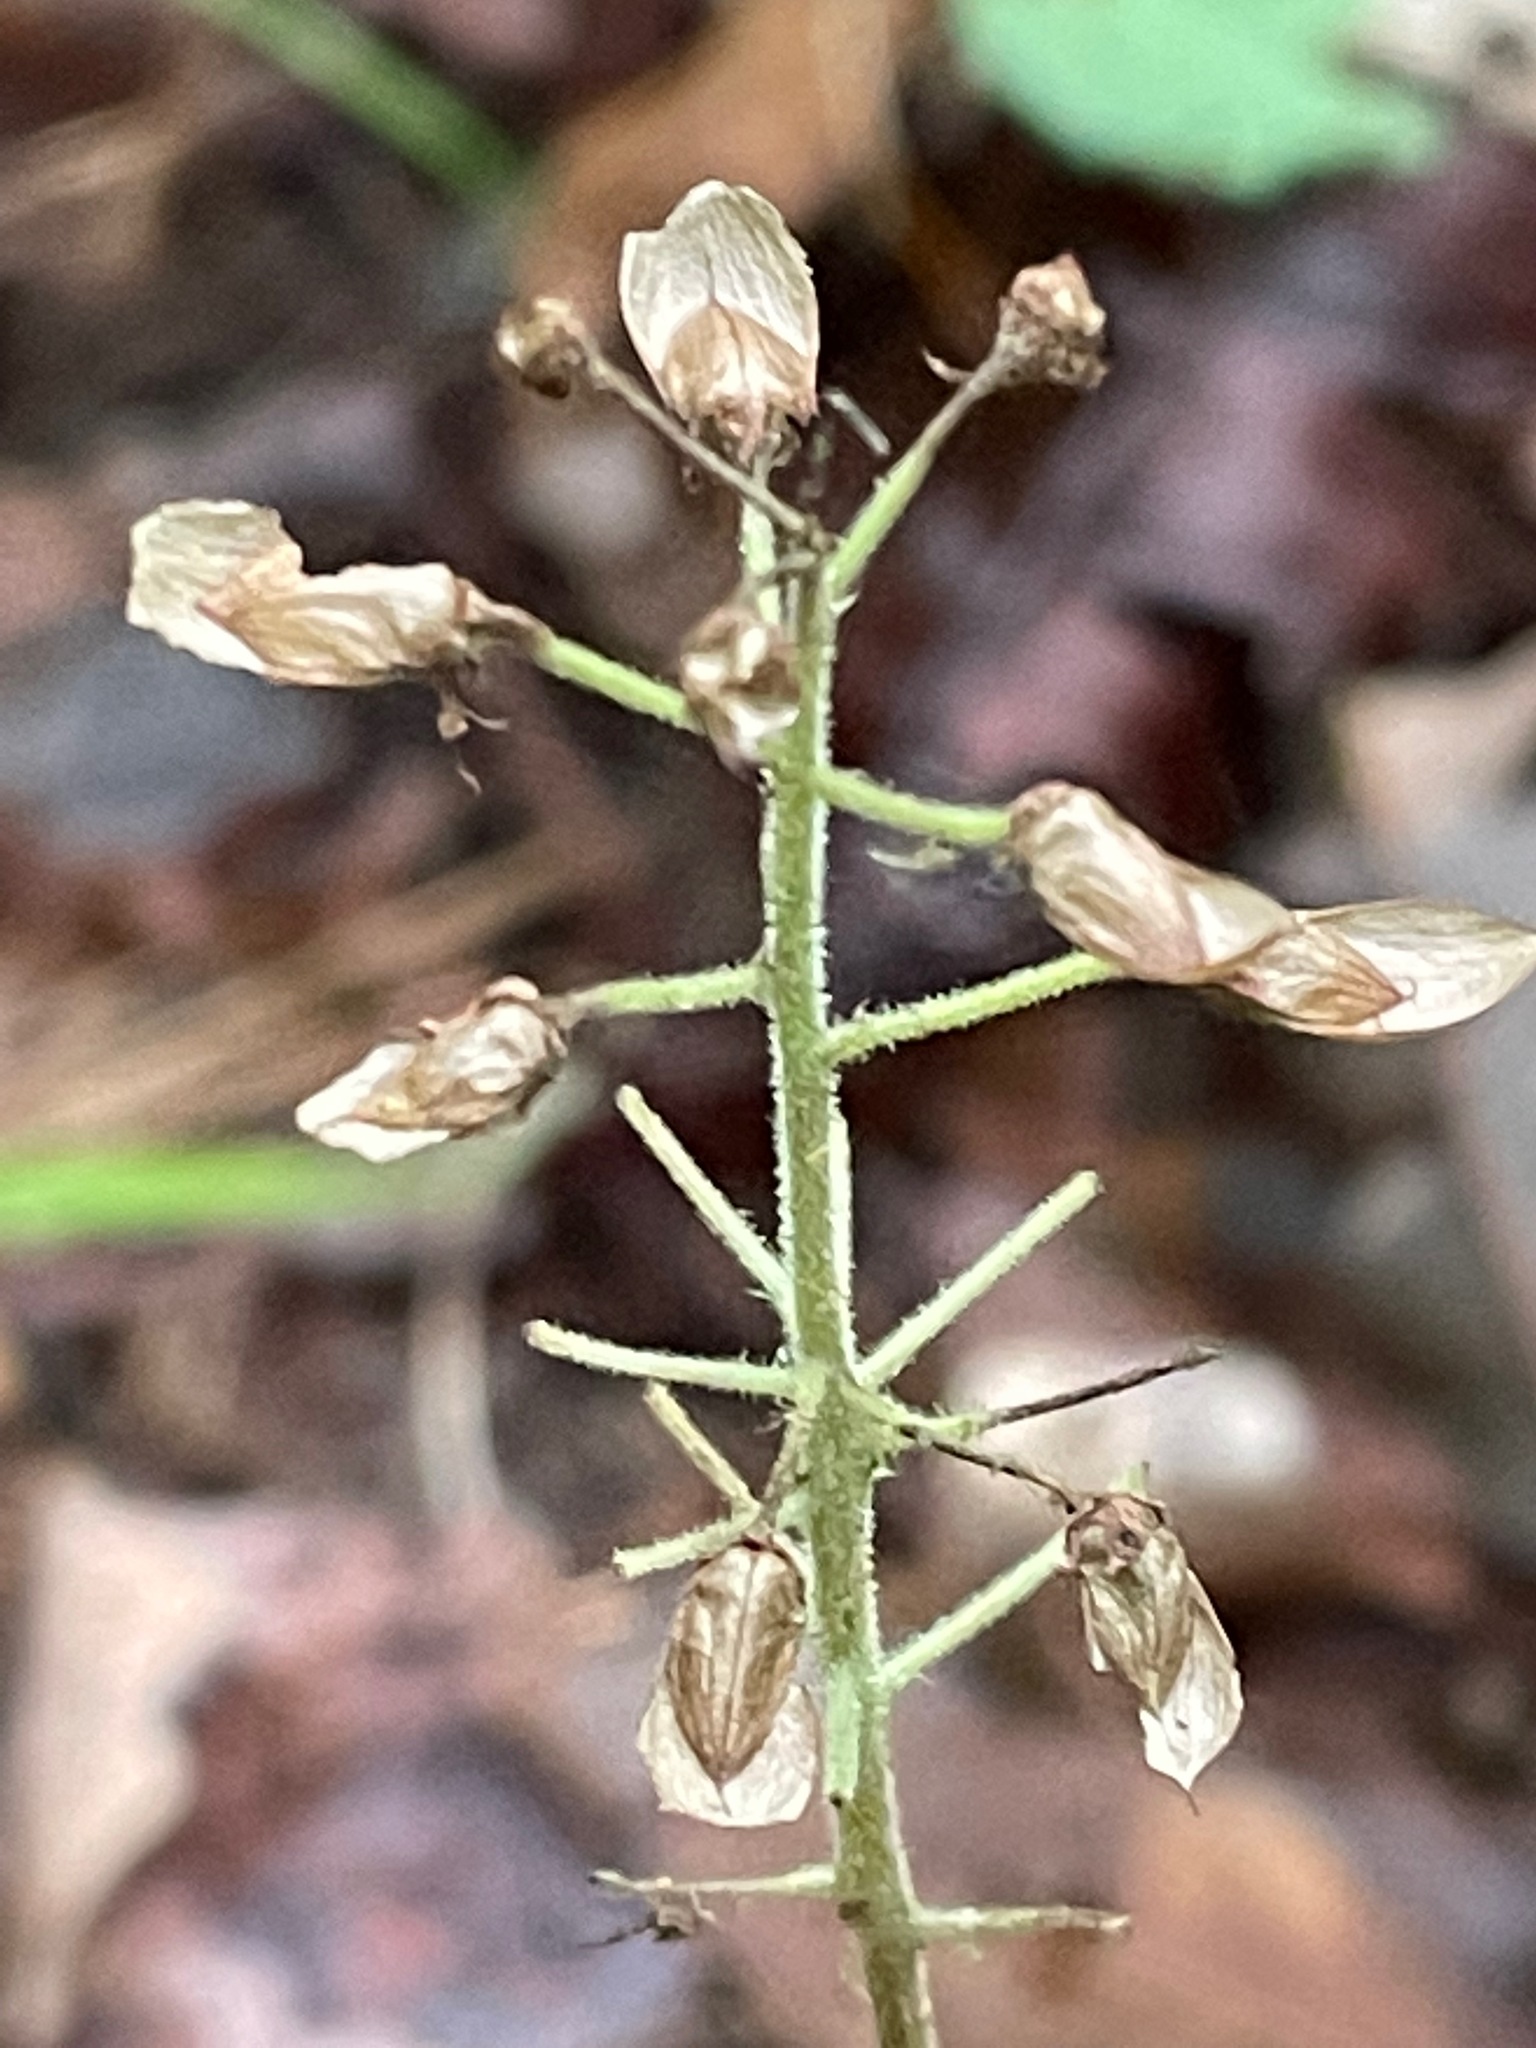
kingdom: Plantae
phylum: Tracheophyta
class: Magnoliopsida
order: Saxifragales
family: Saxifragaceae
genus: Tiarella
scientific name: Tiarella stolonifera
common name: Stoloniferous foamflower
